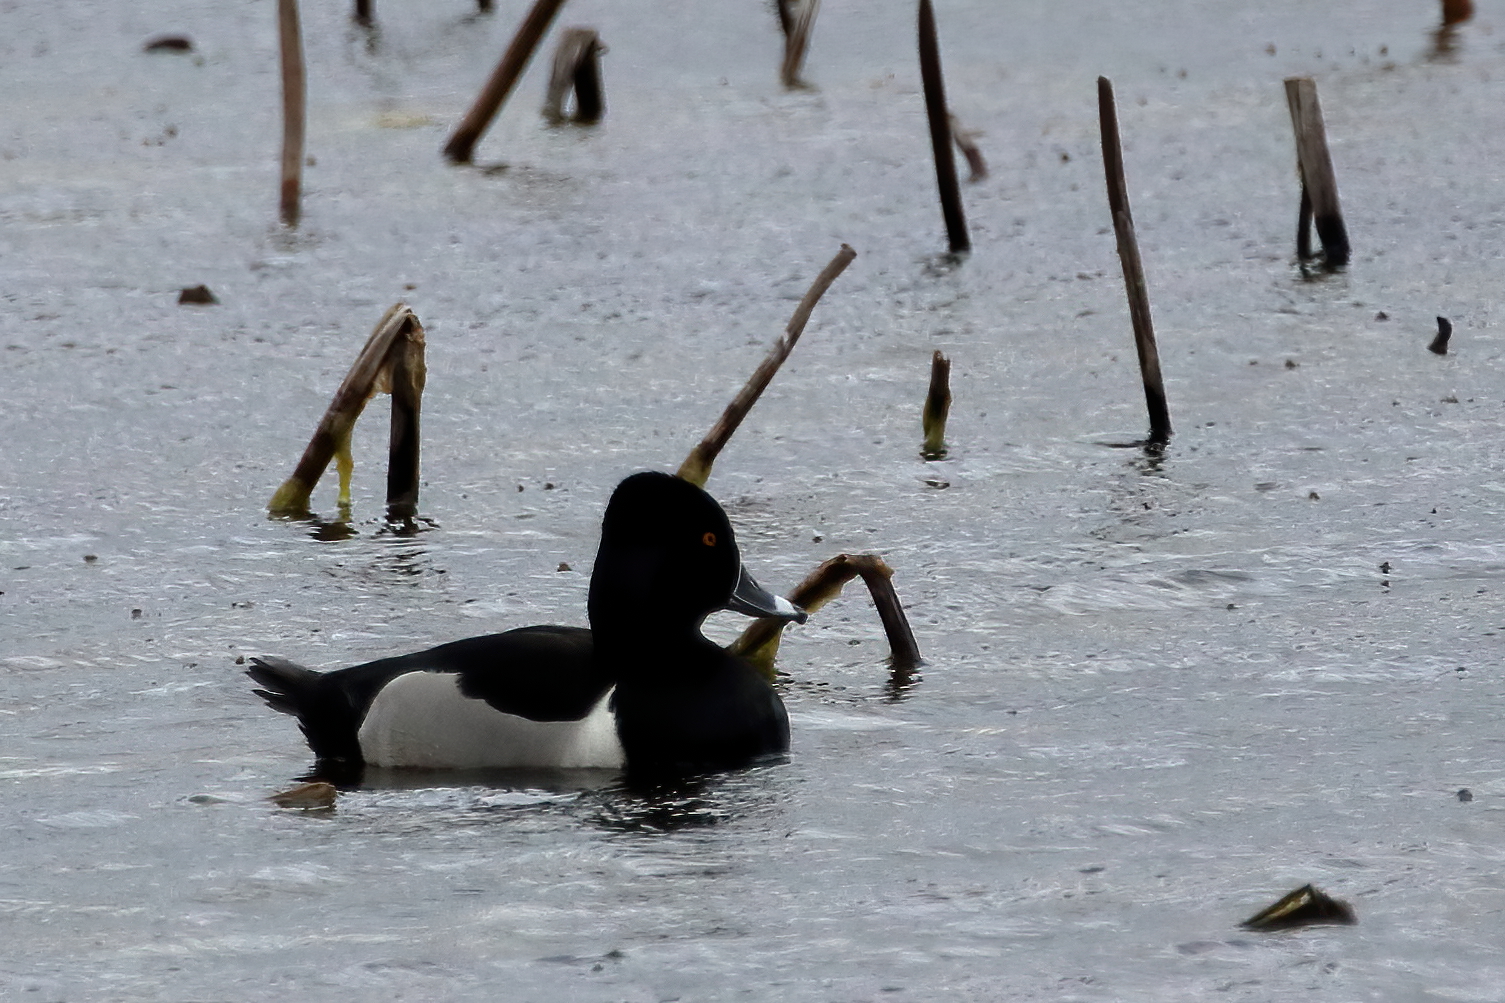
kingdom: Animalia
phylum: Chordata
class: Aves
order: Anseriformes
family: Anatidae
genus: Aythya
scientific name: Aythya collaris
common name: Ring-necked duck
